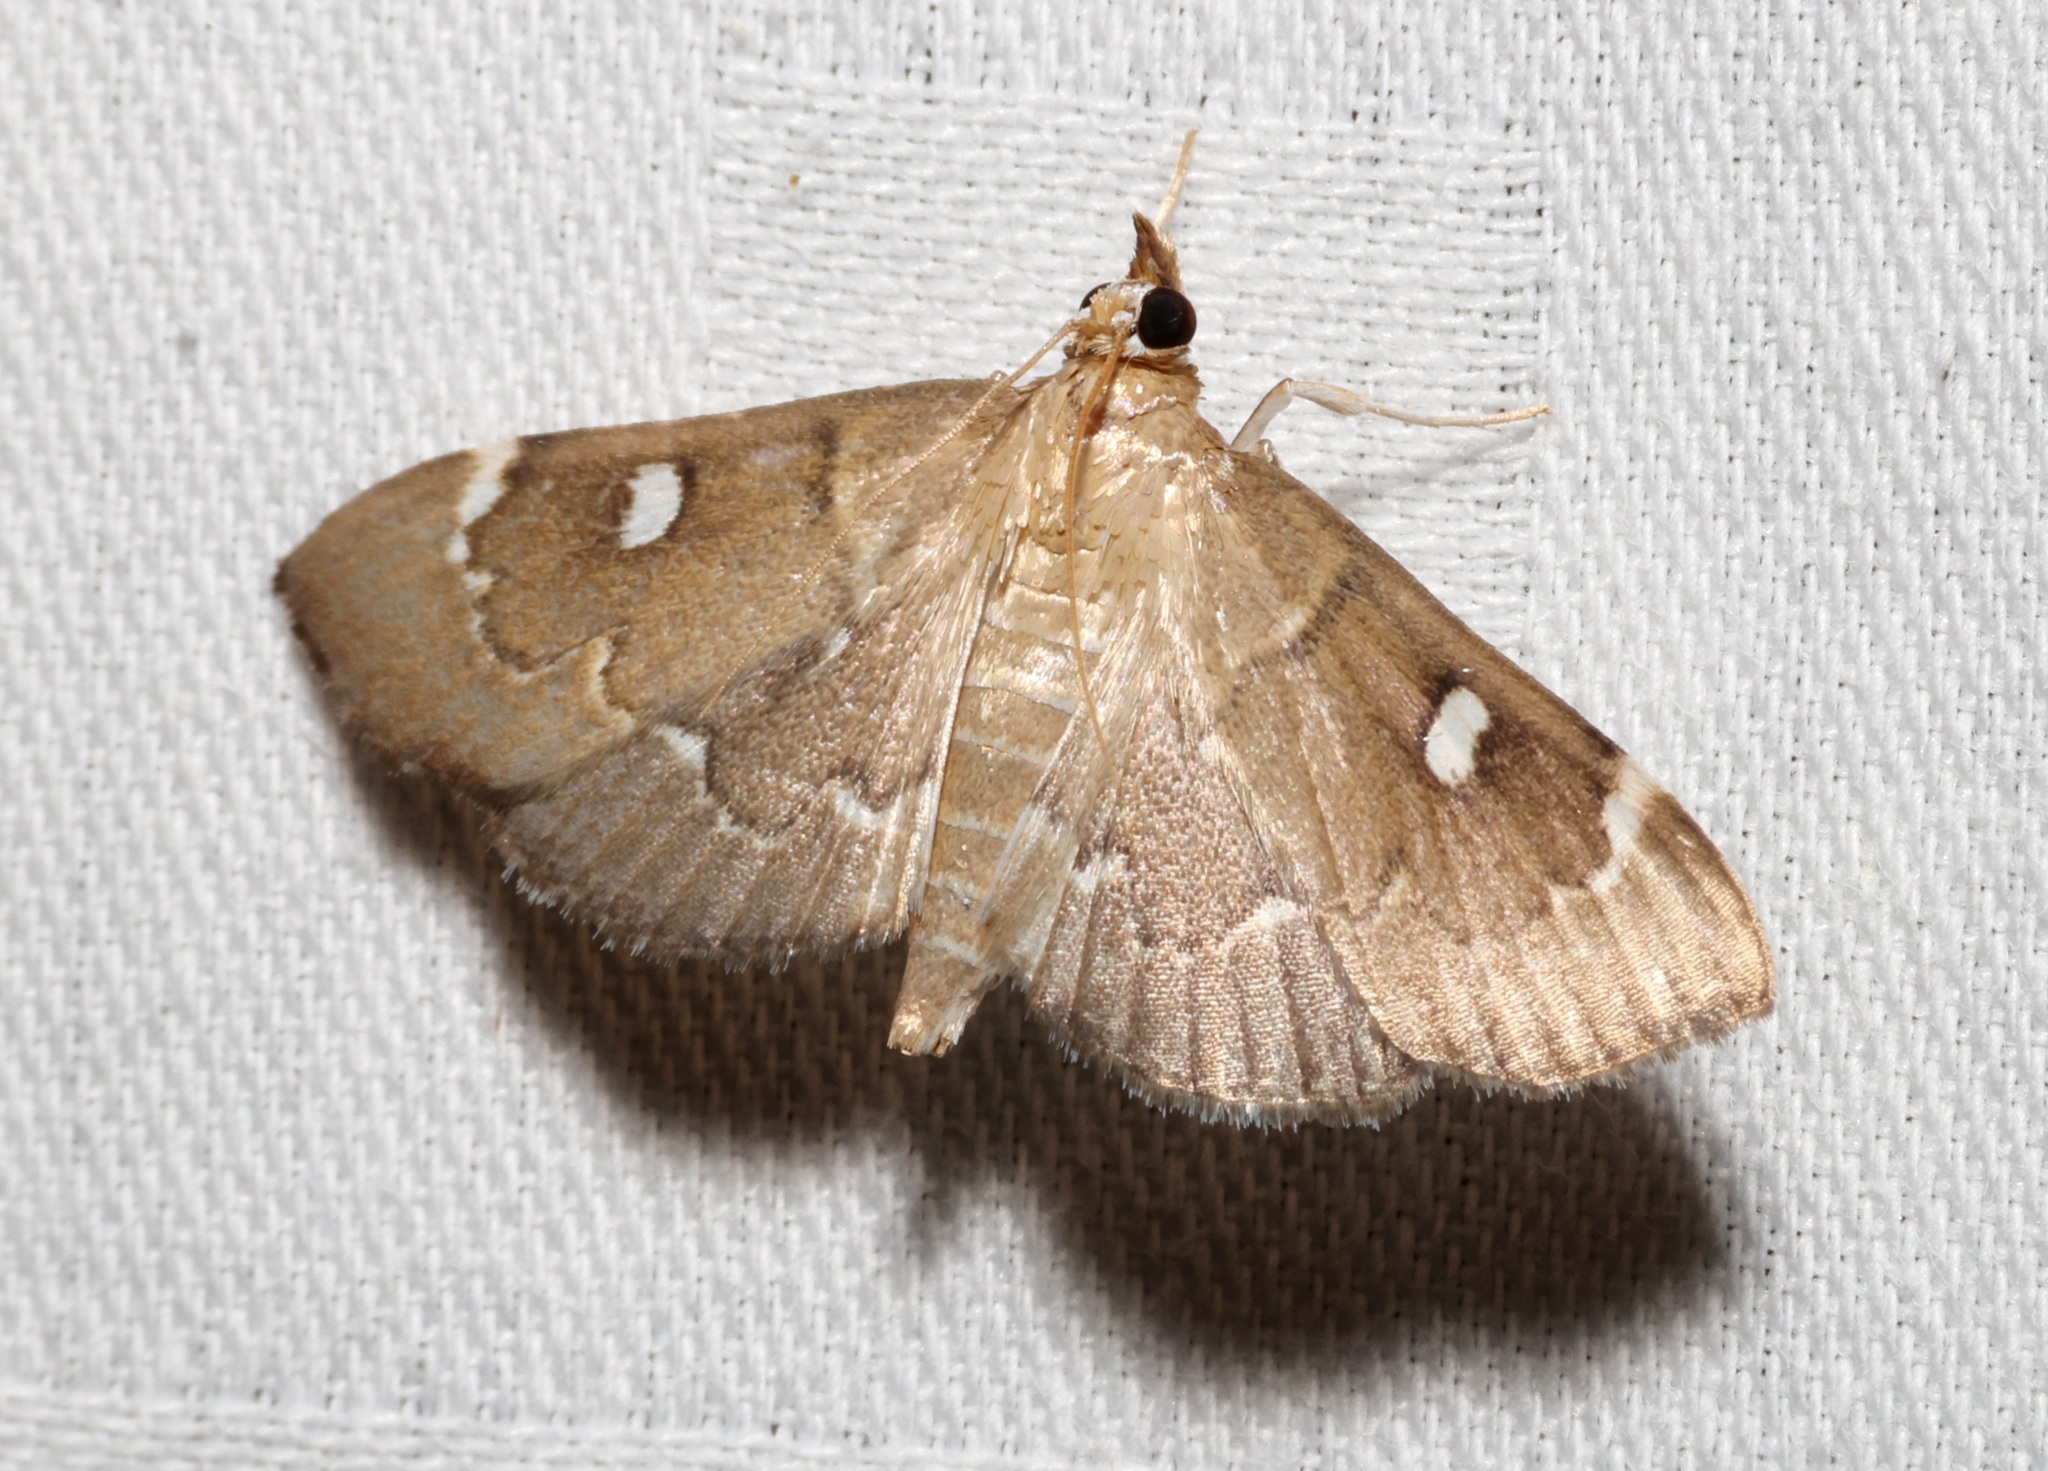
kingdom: Animalia
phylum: Arthropoda
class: Insecta
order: Lepidoptera
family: Crambidae
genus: Protonoceras
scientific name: Protonoceras capitalis
